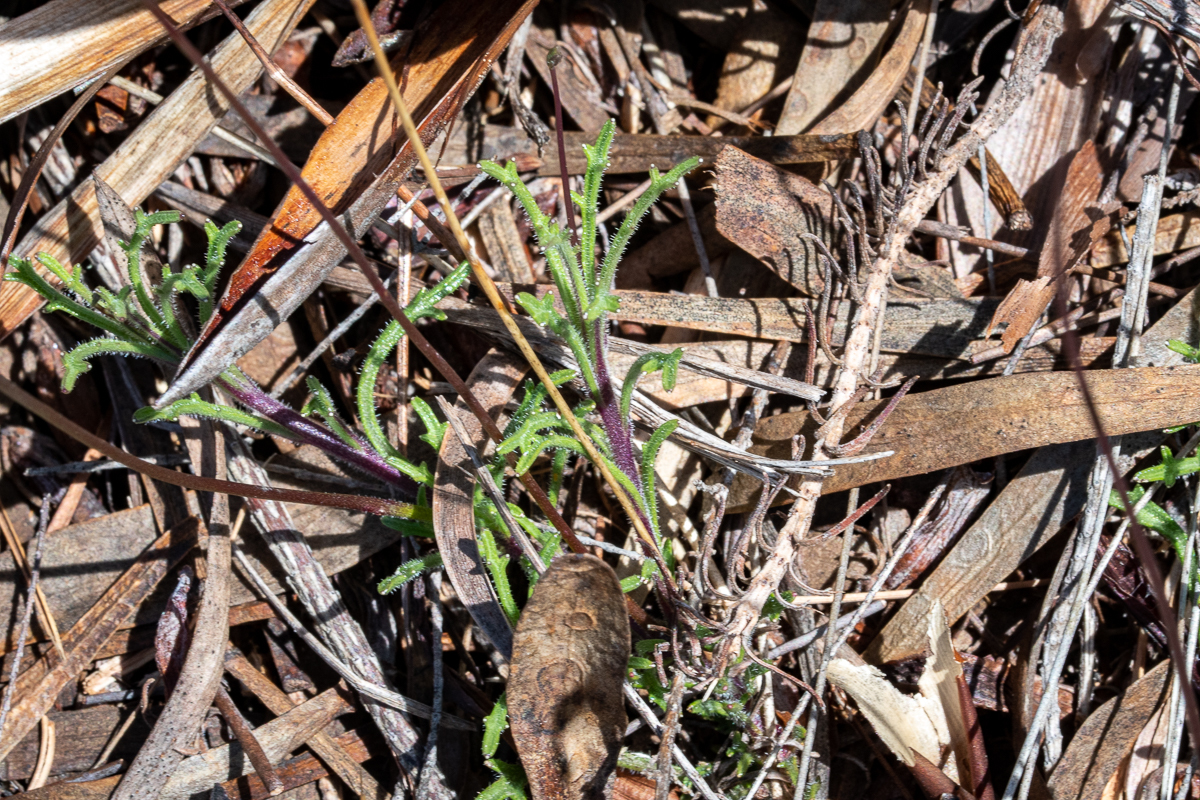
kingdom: Plantae
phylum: Tracheophyta
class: Magnoliopsida
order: Asterales
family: Campanulaceae
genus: Lobelia
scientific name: Lobelia chamaepitys
